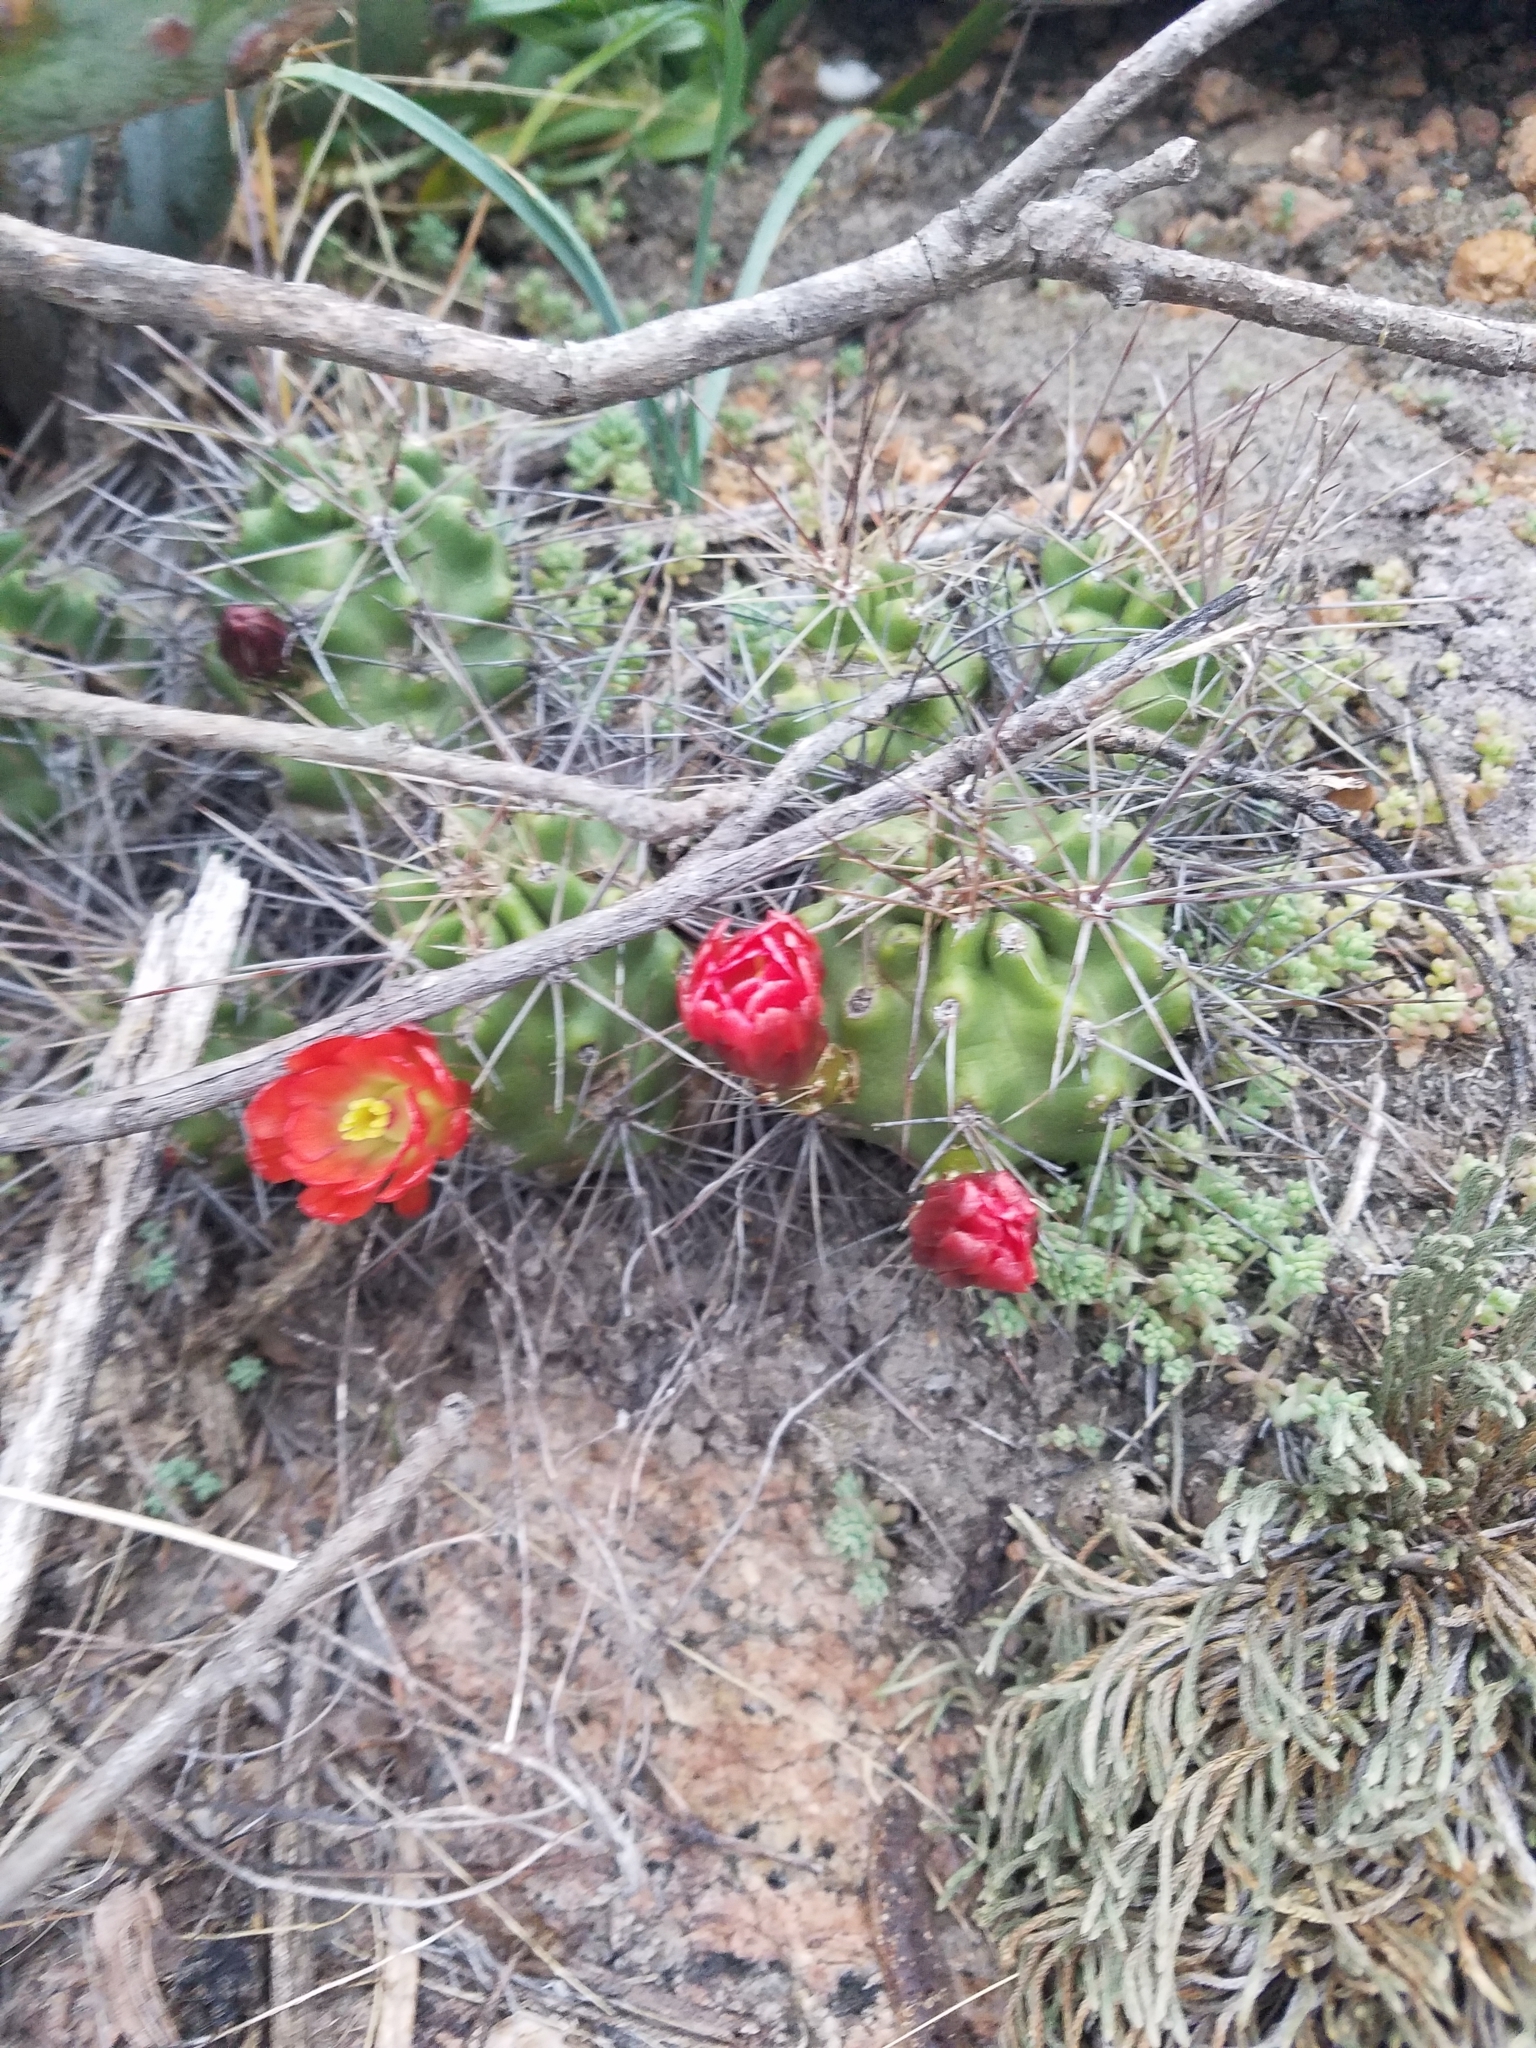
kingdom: Plantae
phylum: Tracheophyta
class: Magnoliopsida
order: Caryophyllales
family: Cactaceae
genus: Echinocereus
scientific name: Echinocereus coccineus
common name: Scarlet hedgehog cactus
